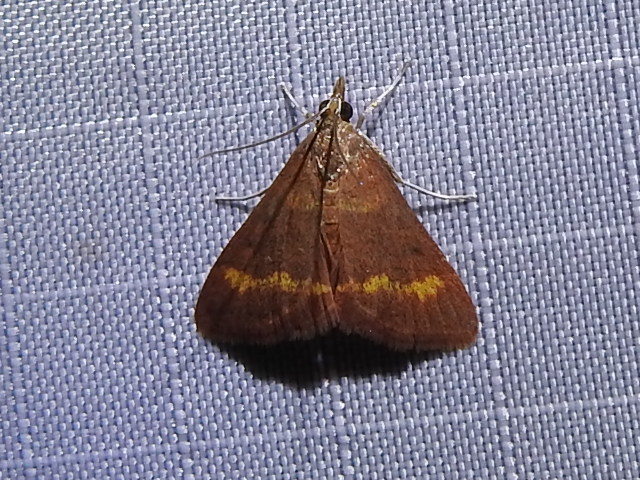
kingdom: Animalia
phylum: Arthropoda
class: Insecta
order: Lepidoptera
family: Crambidae
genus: Pyrausta
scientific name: Pyrausta pseuderosnealis
